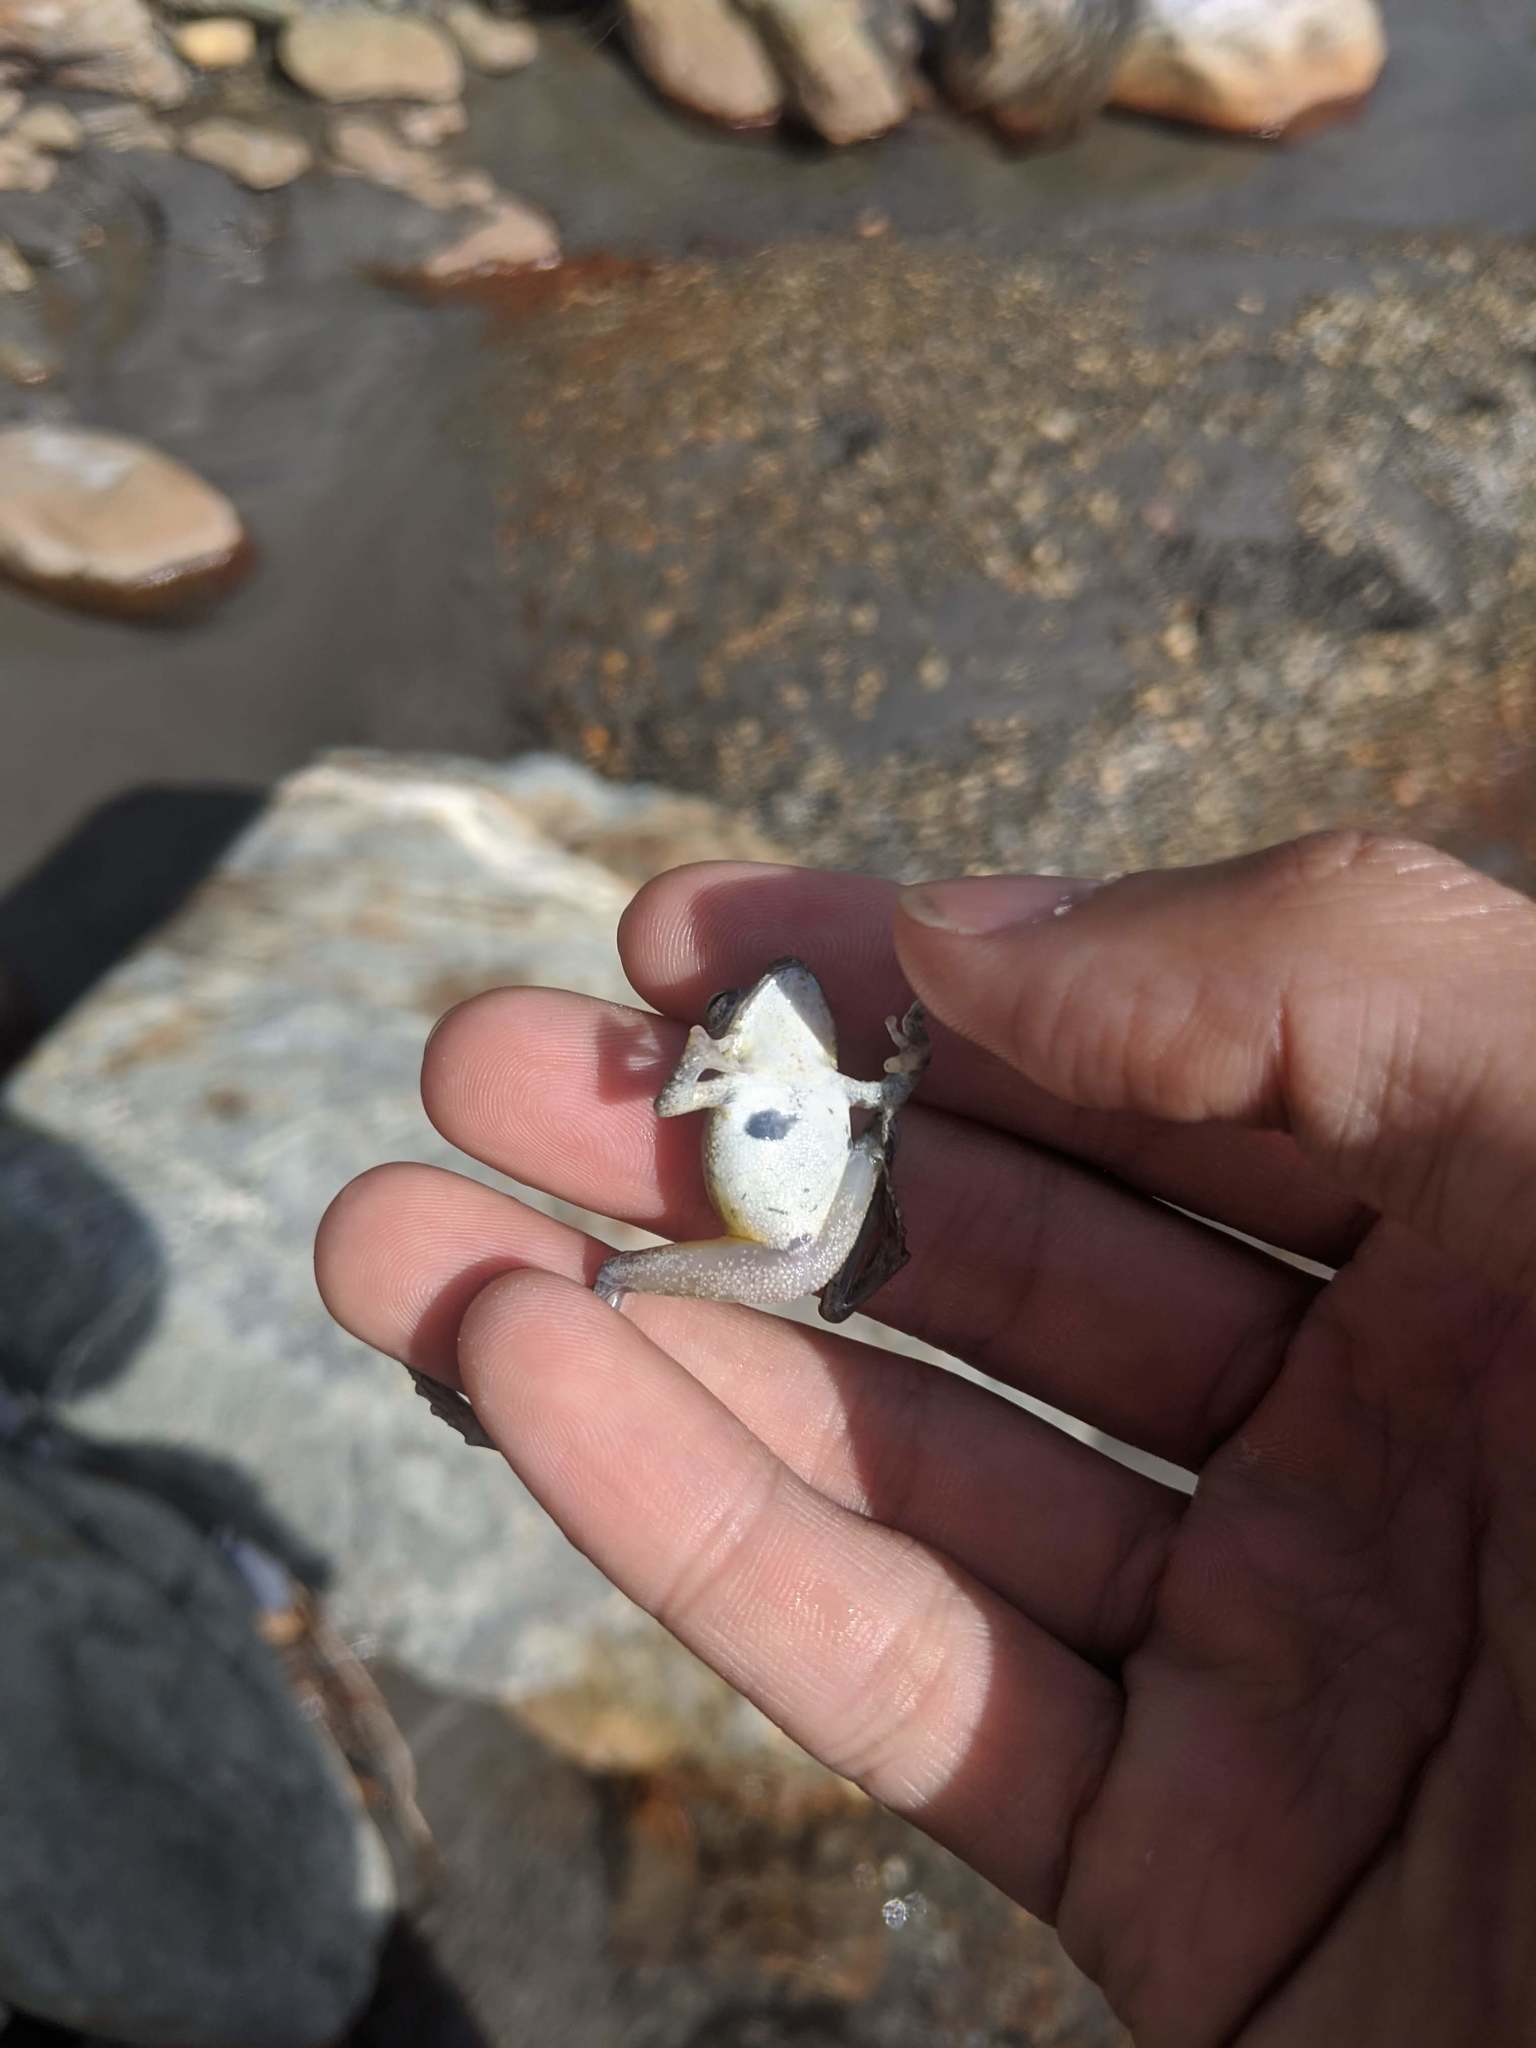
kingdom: Animalia
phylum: Chordata
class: Amphibia
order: Anura
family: Rhacophoridae
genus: Buergeria
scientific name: Buergeria otai
